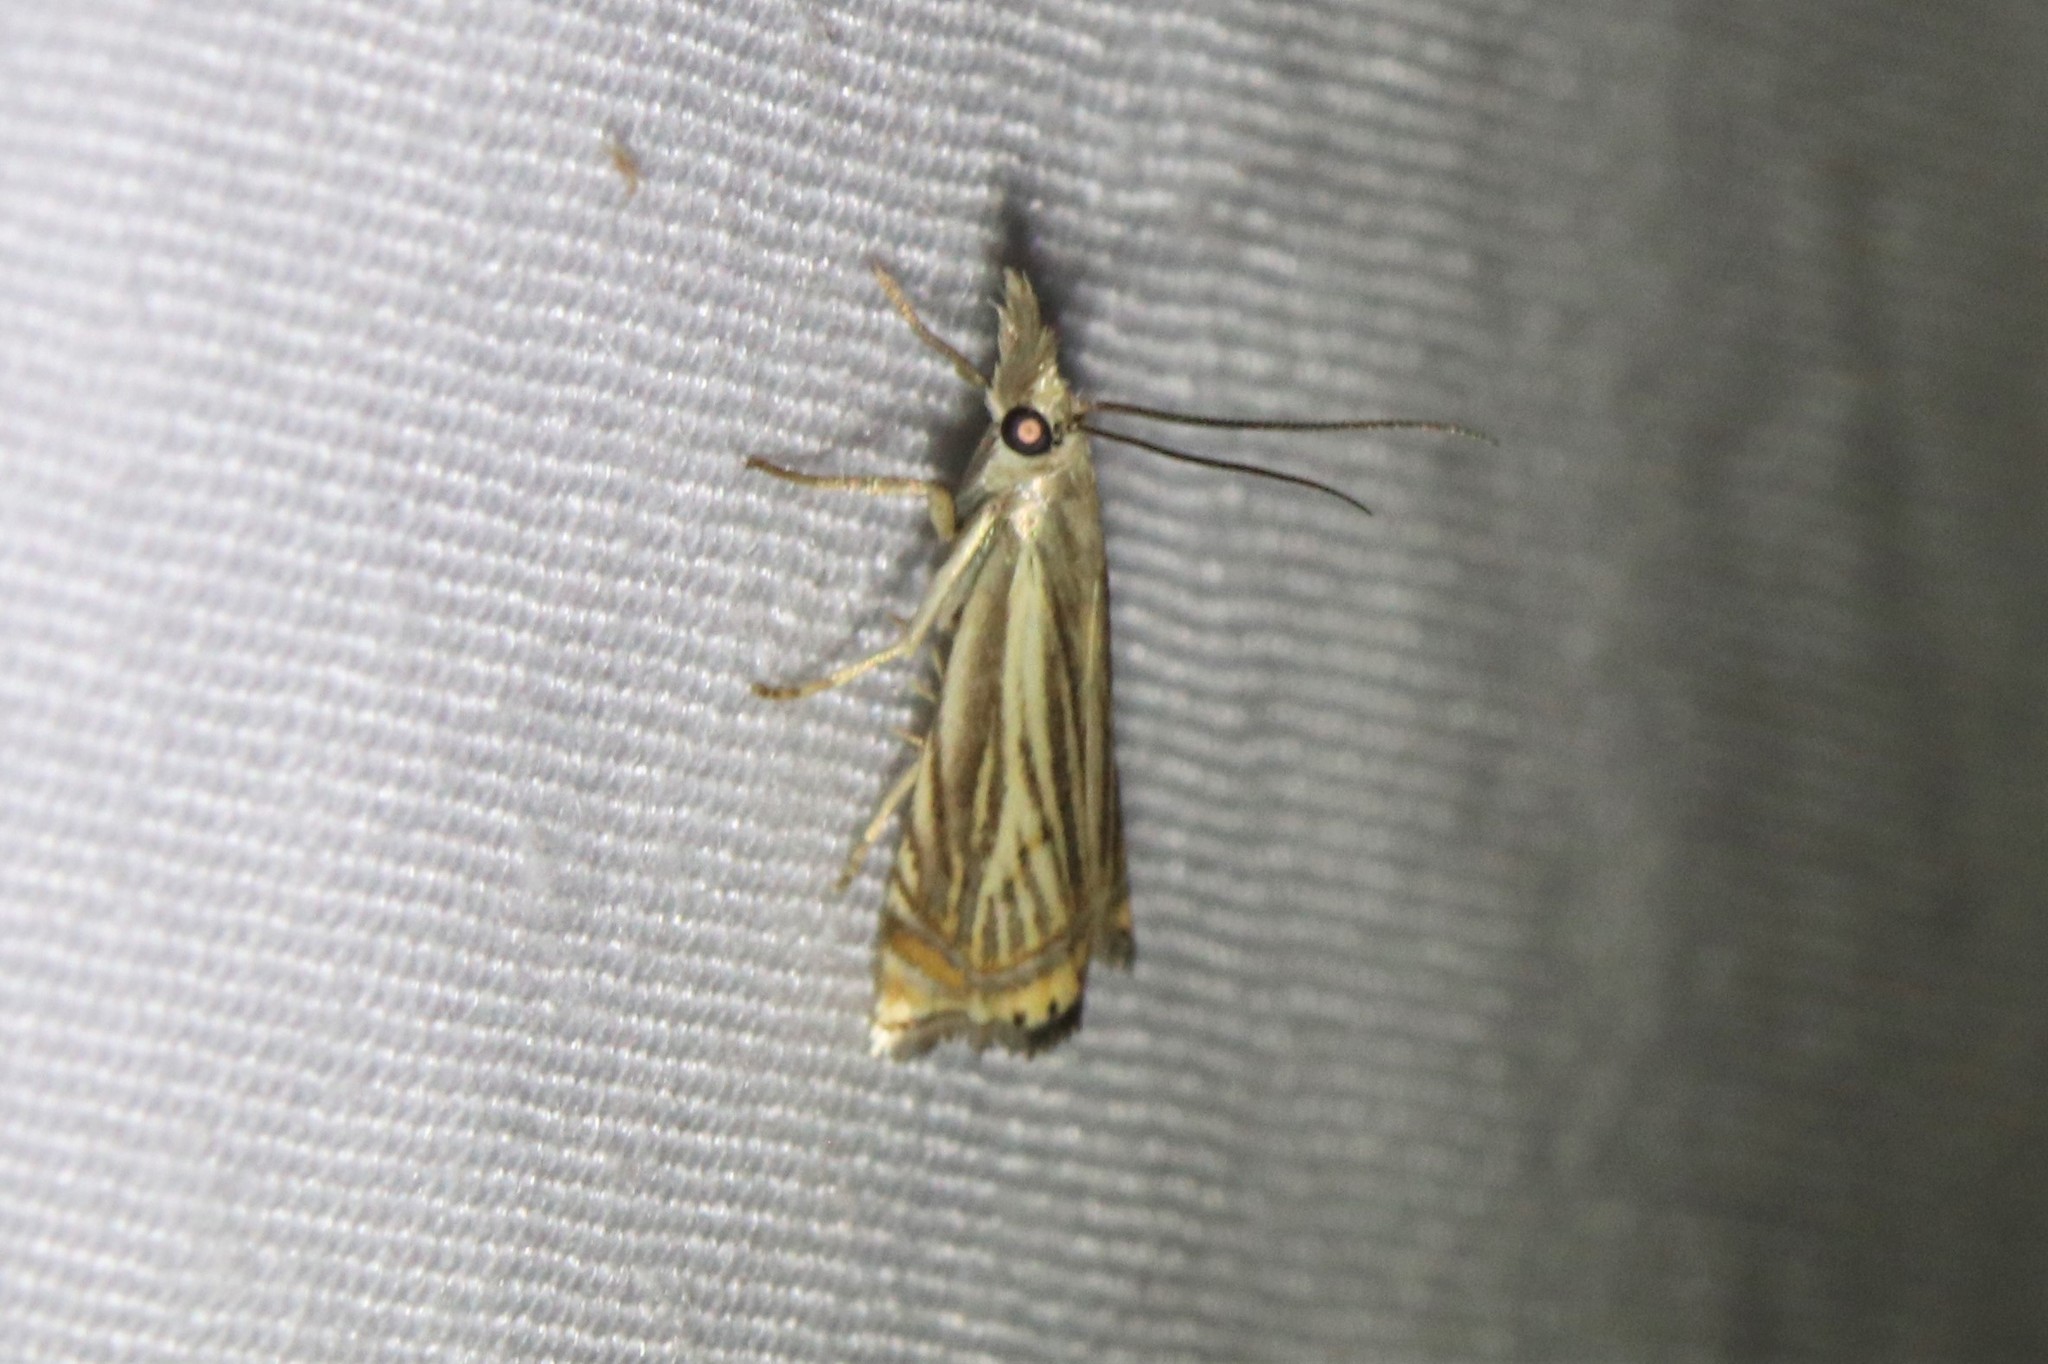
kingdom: Animalia
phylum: Arthropoda
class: Insecta
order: Lepidoptera
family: Crambidae
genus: Chrysoteuchia
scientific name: Chrysoteuchia topiarius
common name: Topiary grass-veneer
